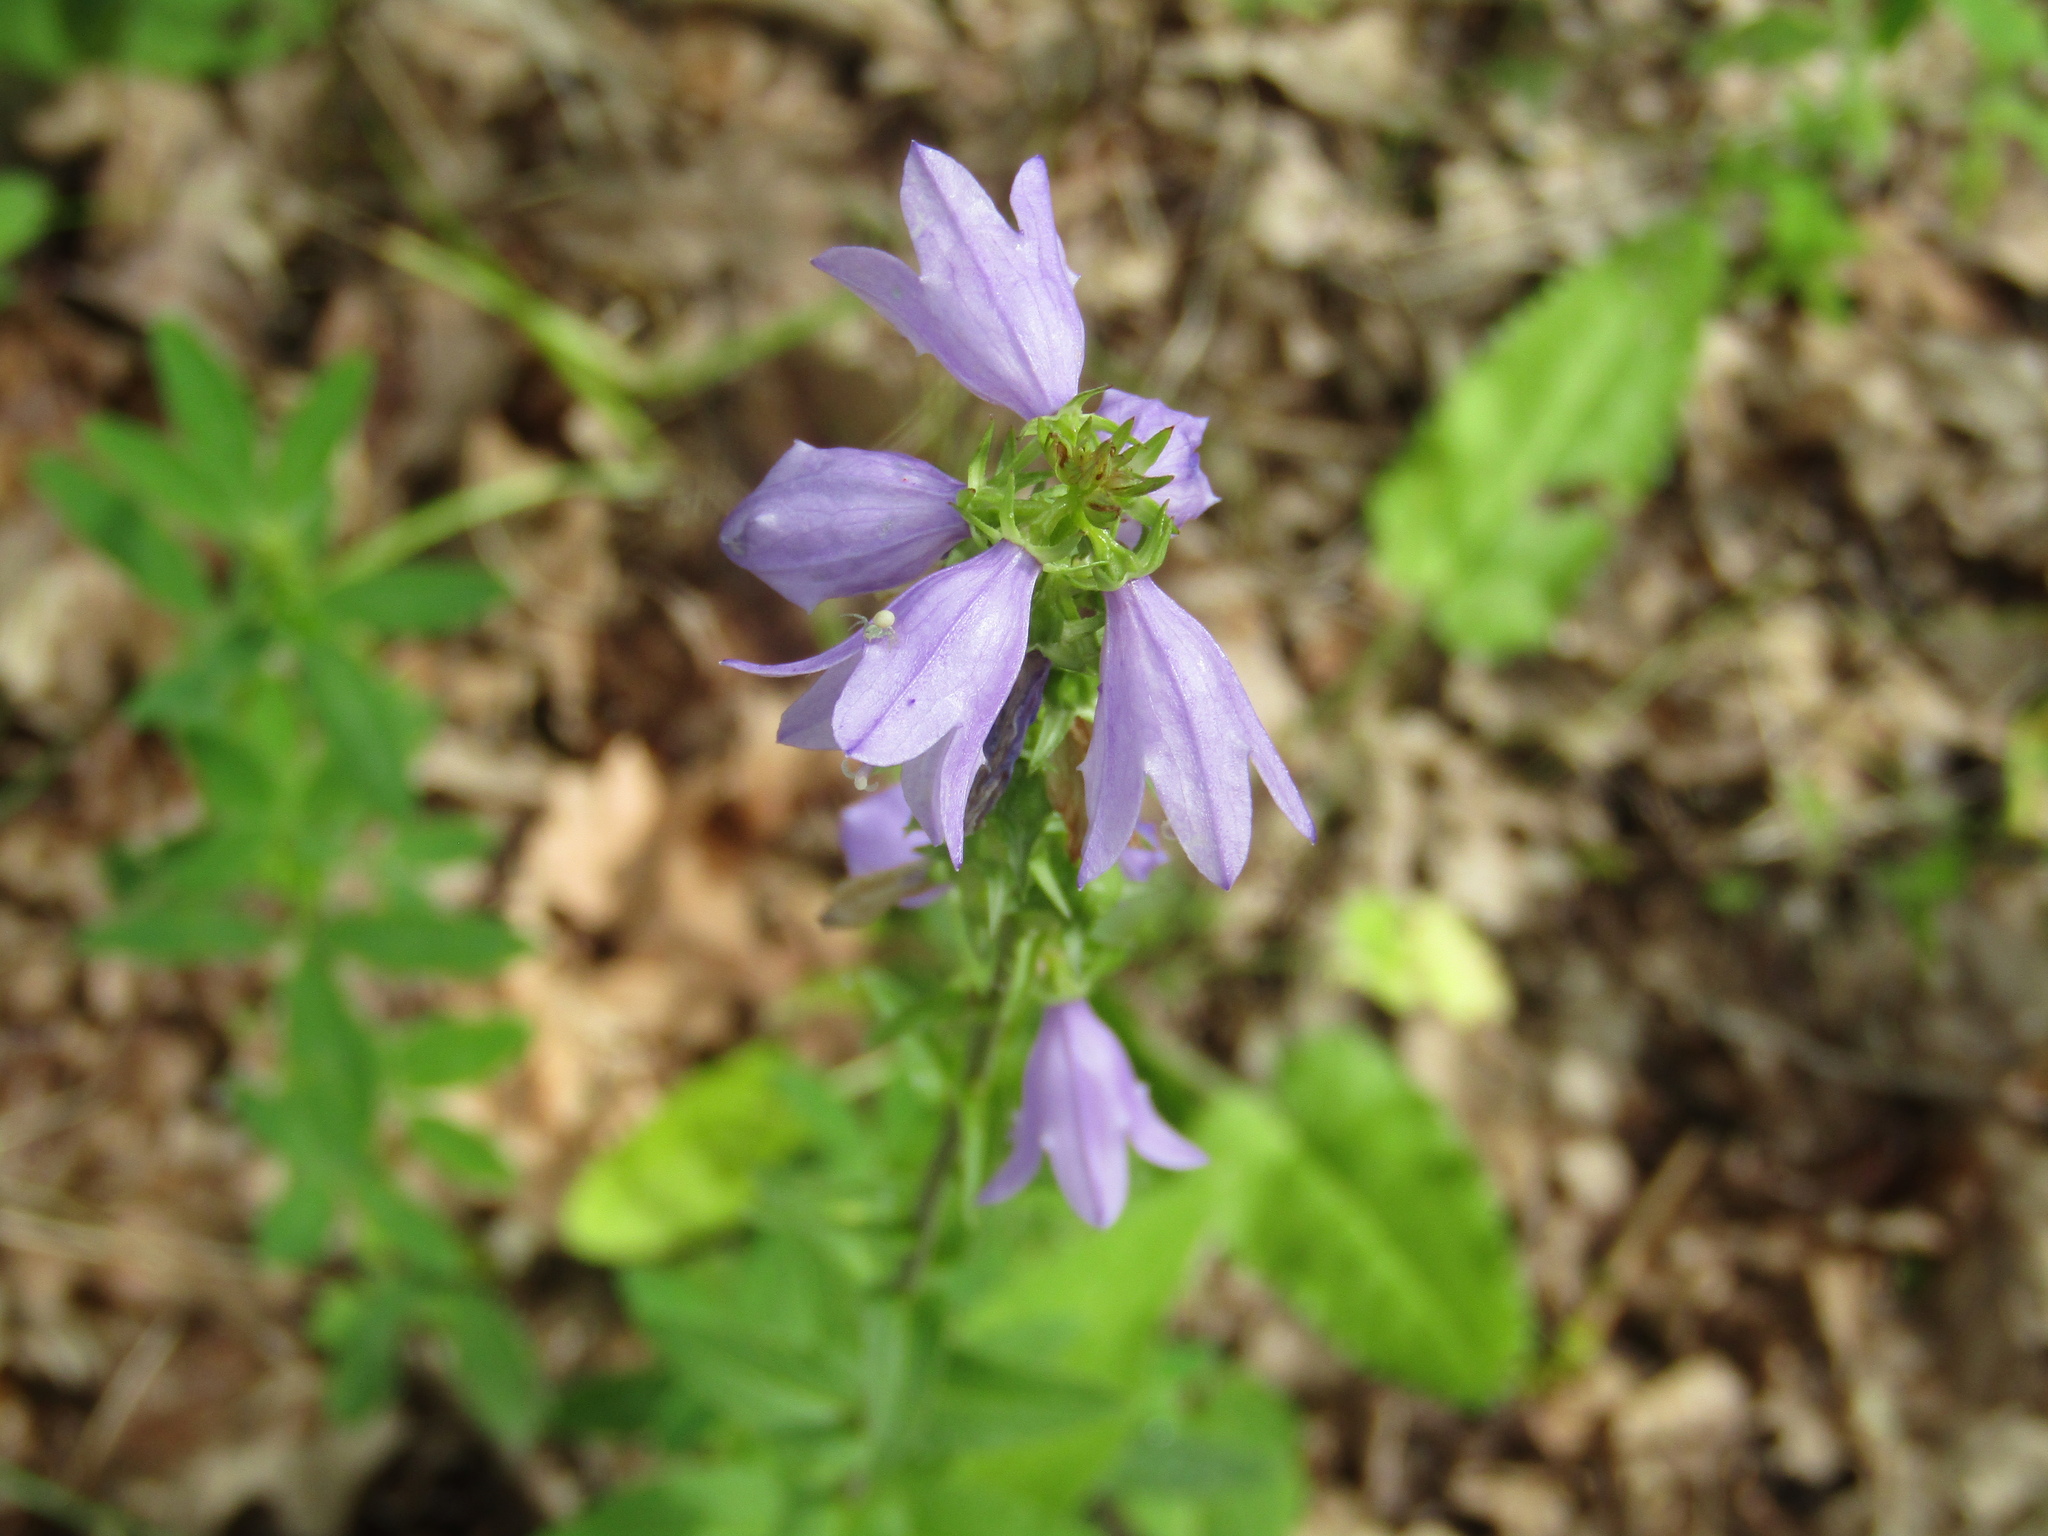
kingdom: Plantae
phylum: Tracheophyta
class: Magnoliopsida
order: Asterales
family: Campanulaceae
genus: Campanula
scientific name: Campanula bononiensis
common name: Pale bellflower
